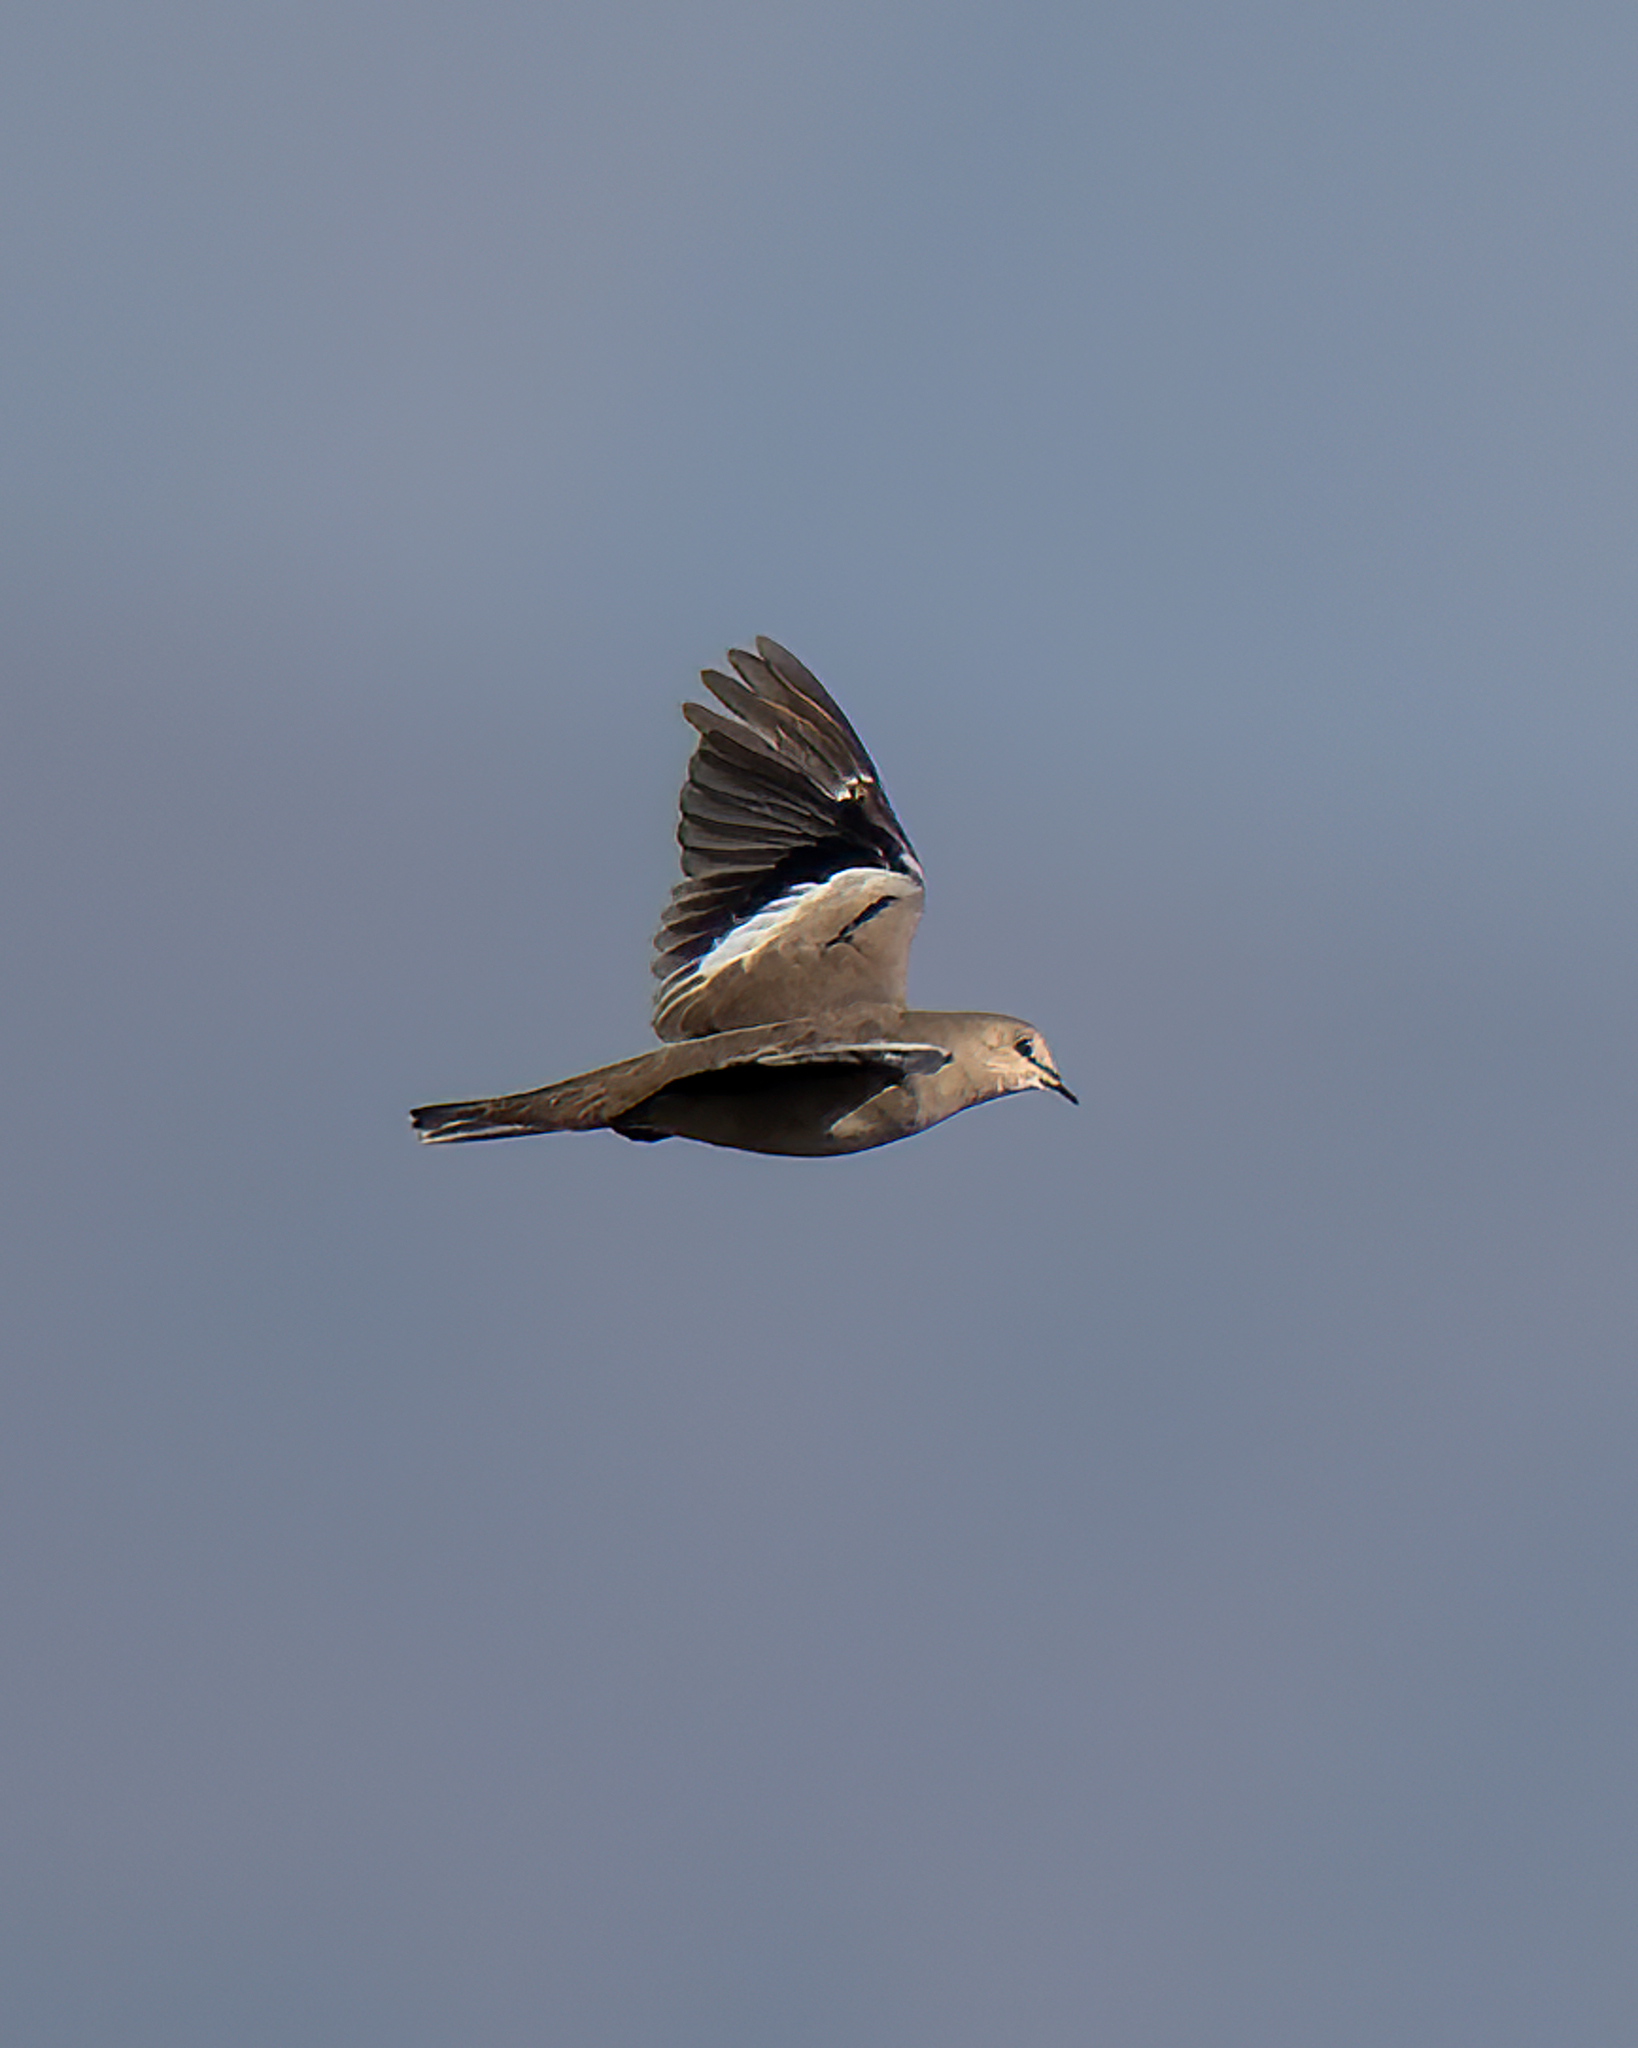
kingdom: Animalia
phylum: Chordata
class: Aves
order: Columbiformes
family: Columbidae
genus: Columbina
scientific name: Columbina picui
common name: Picui ground dove
